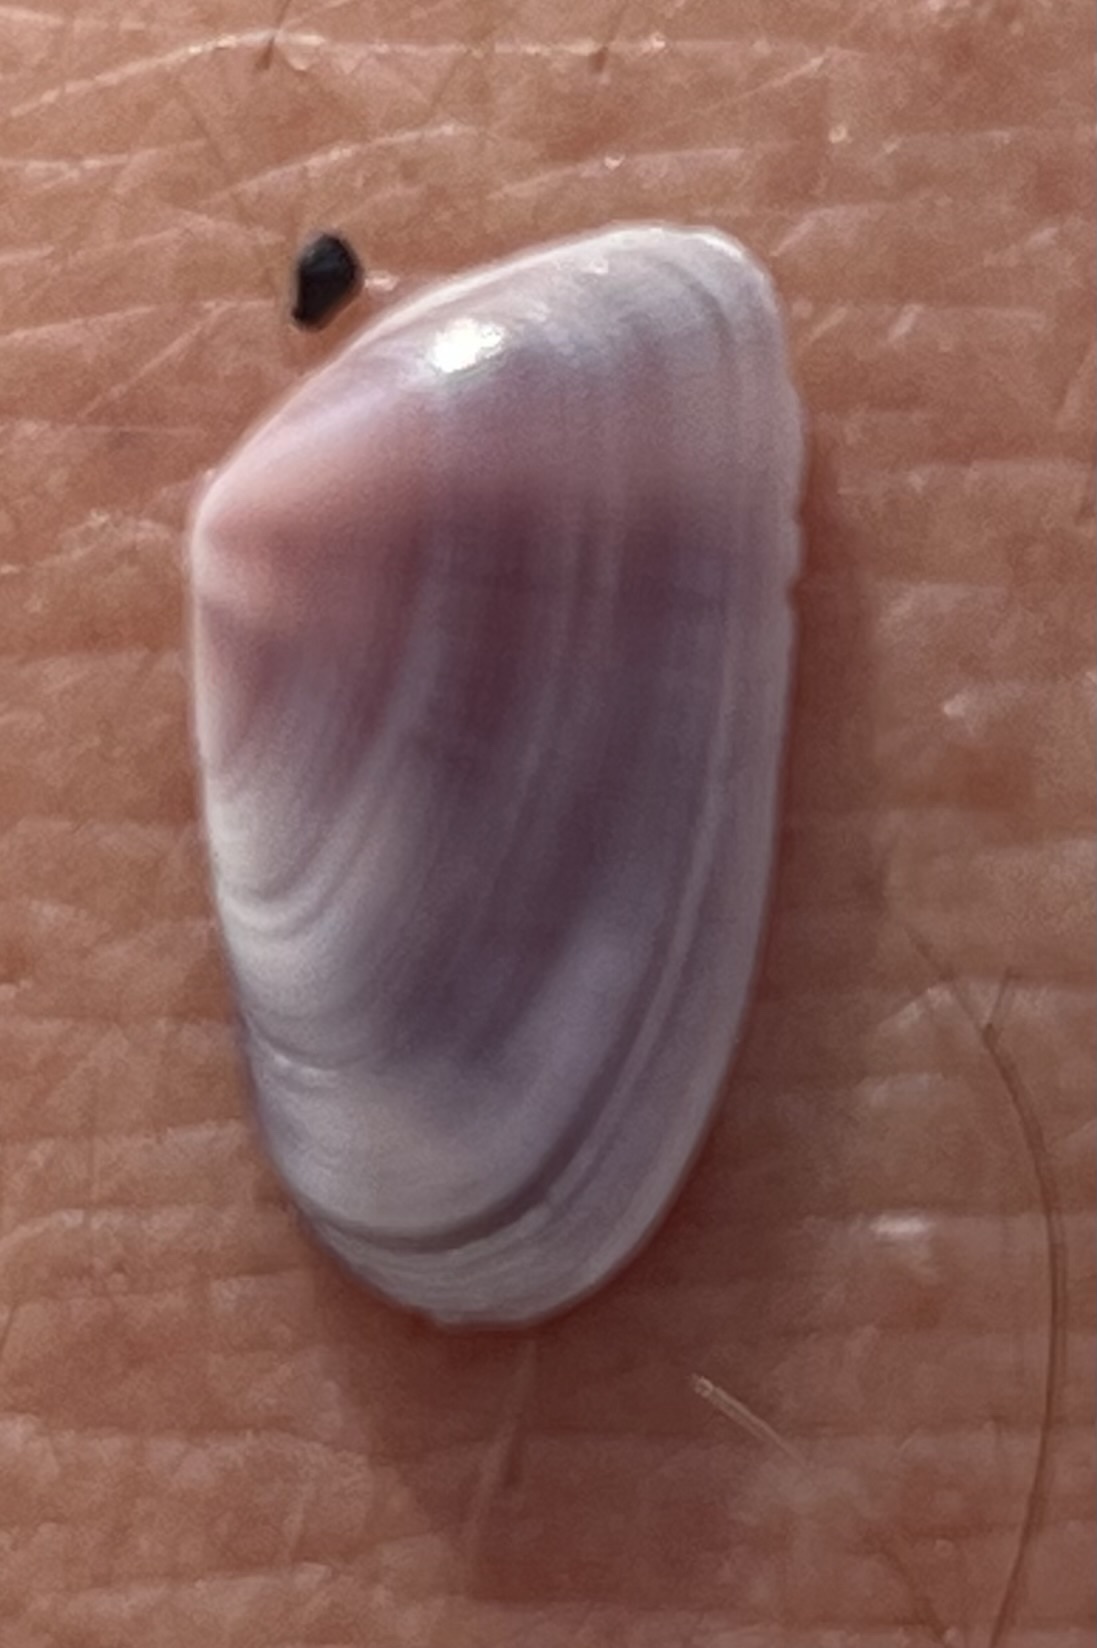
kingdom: Animalia
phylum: Mollusca
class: Bivalvia
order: Cardiida
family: Donacidae
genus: Donax
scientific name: Donax variabilis
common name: Butterfly shell
